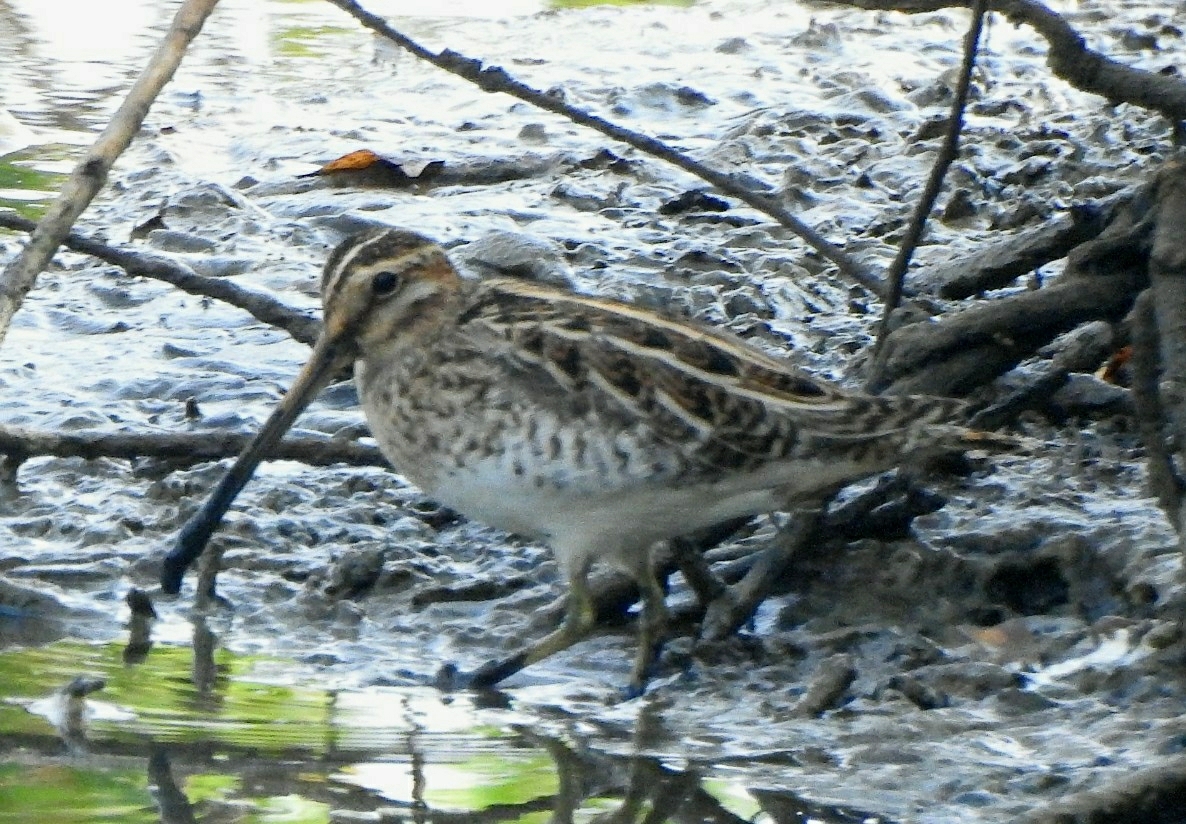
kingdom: Animalia
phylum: Chordata
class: Aves
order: Charadriiformes
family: Scolopacidae
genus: Gallinago
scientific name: Gallinago stenura
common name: Pin-tailed snipe
